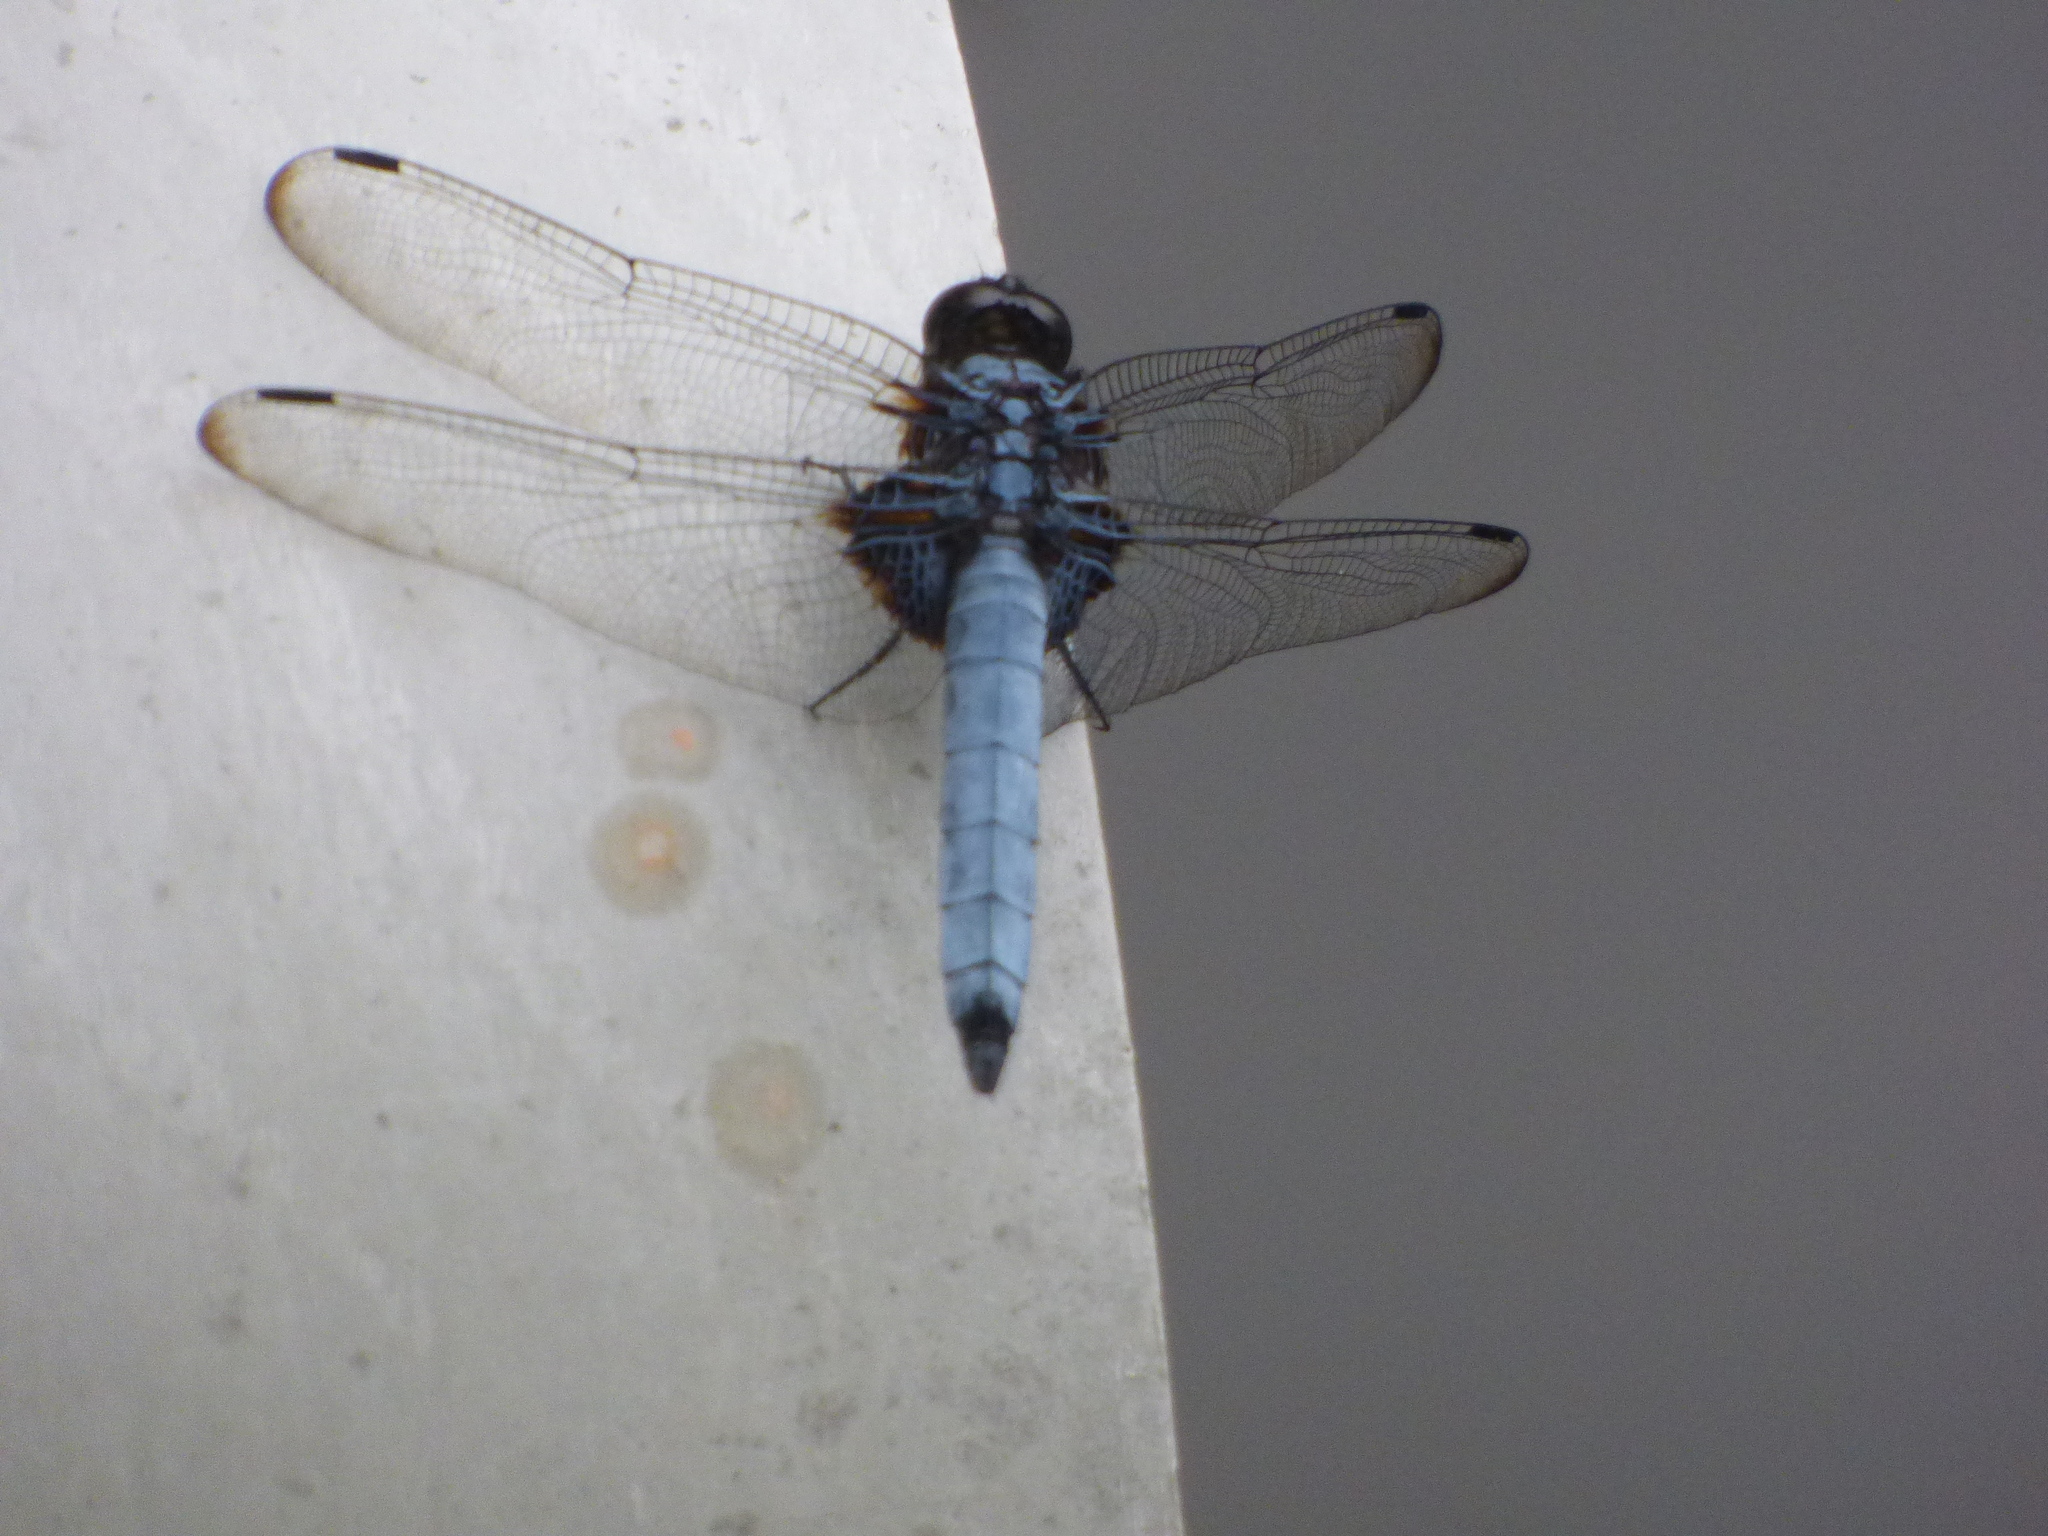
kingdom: Animalia
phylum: Arthropoda
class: Insecta
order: Odonata
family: Libellulidae
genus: Orthetrum
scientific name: Orthetrum melania
